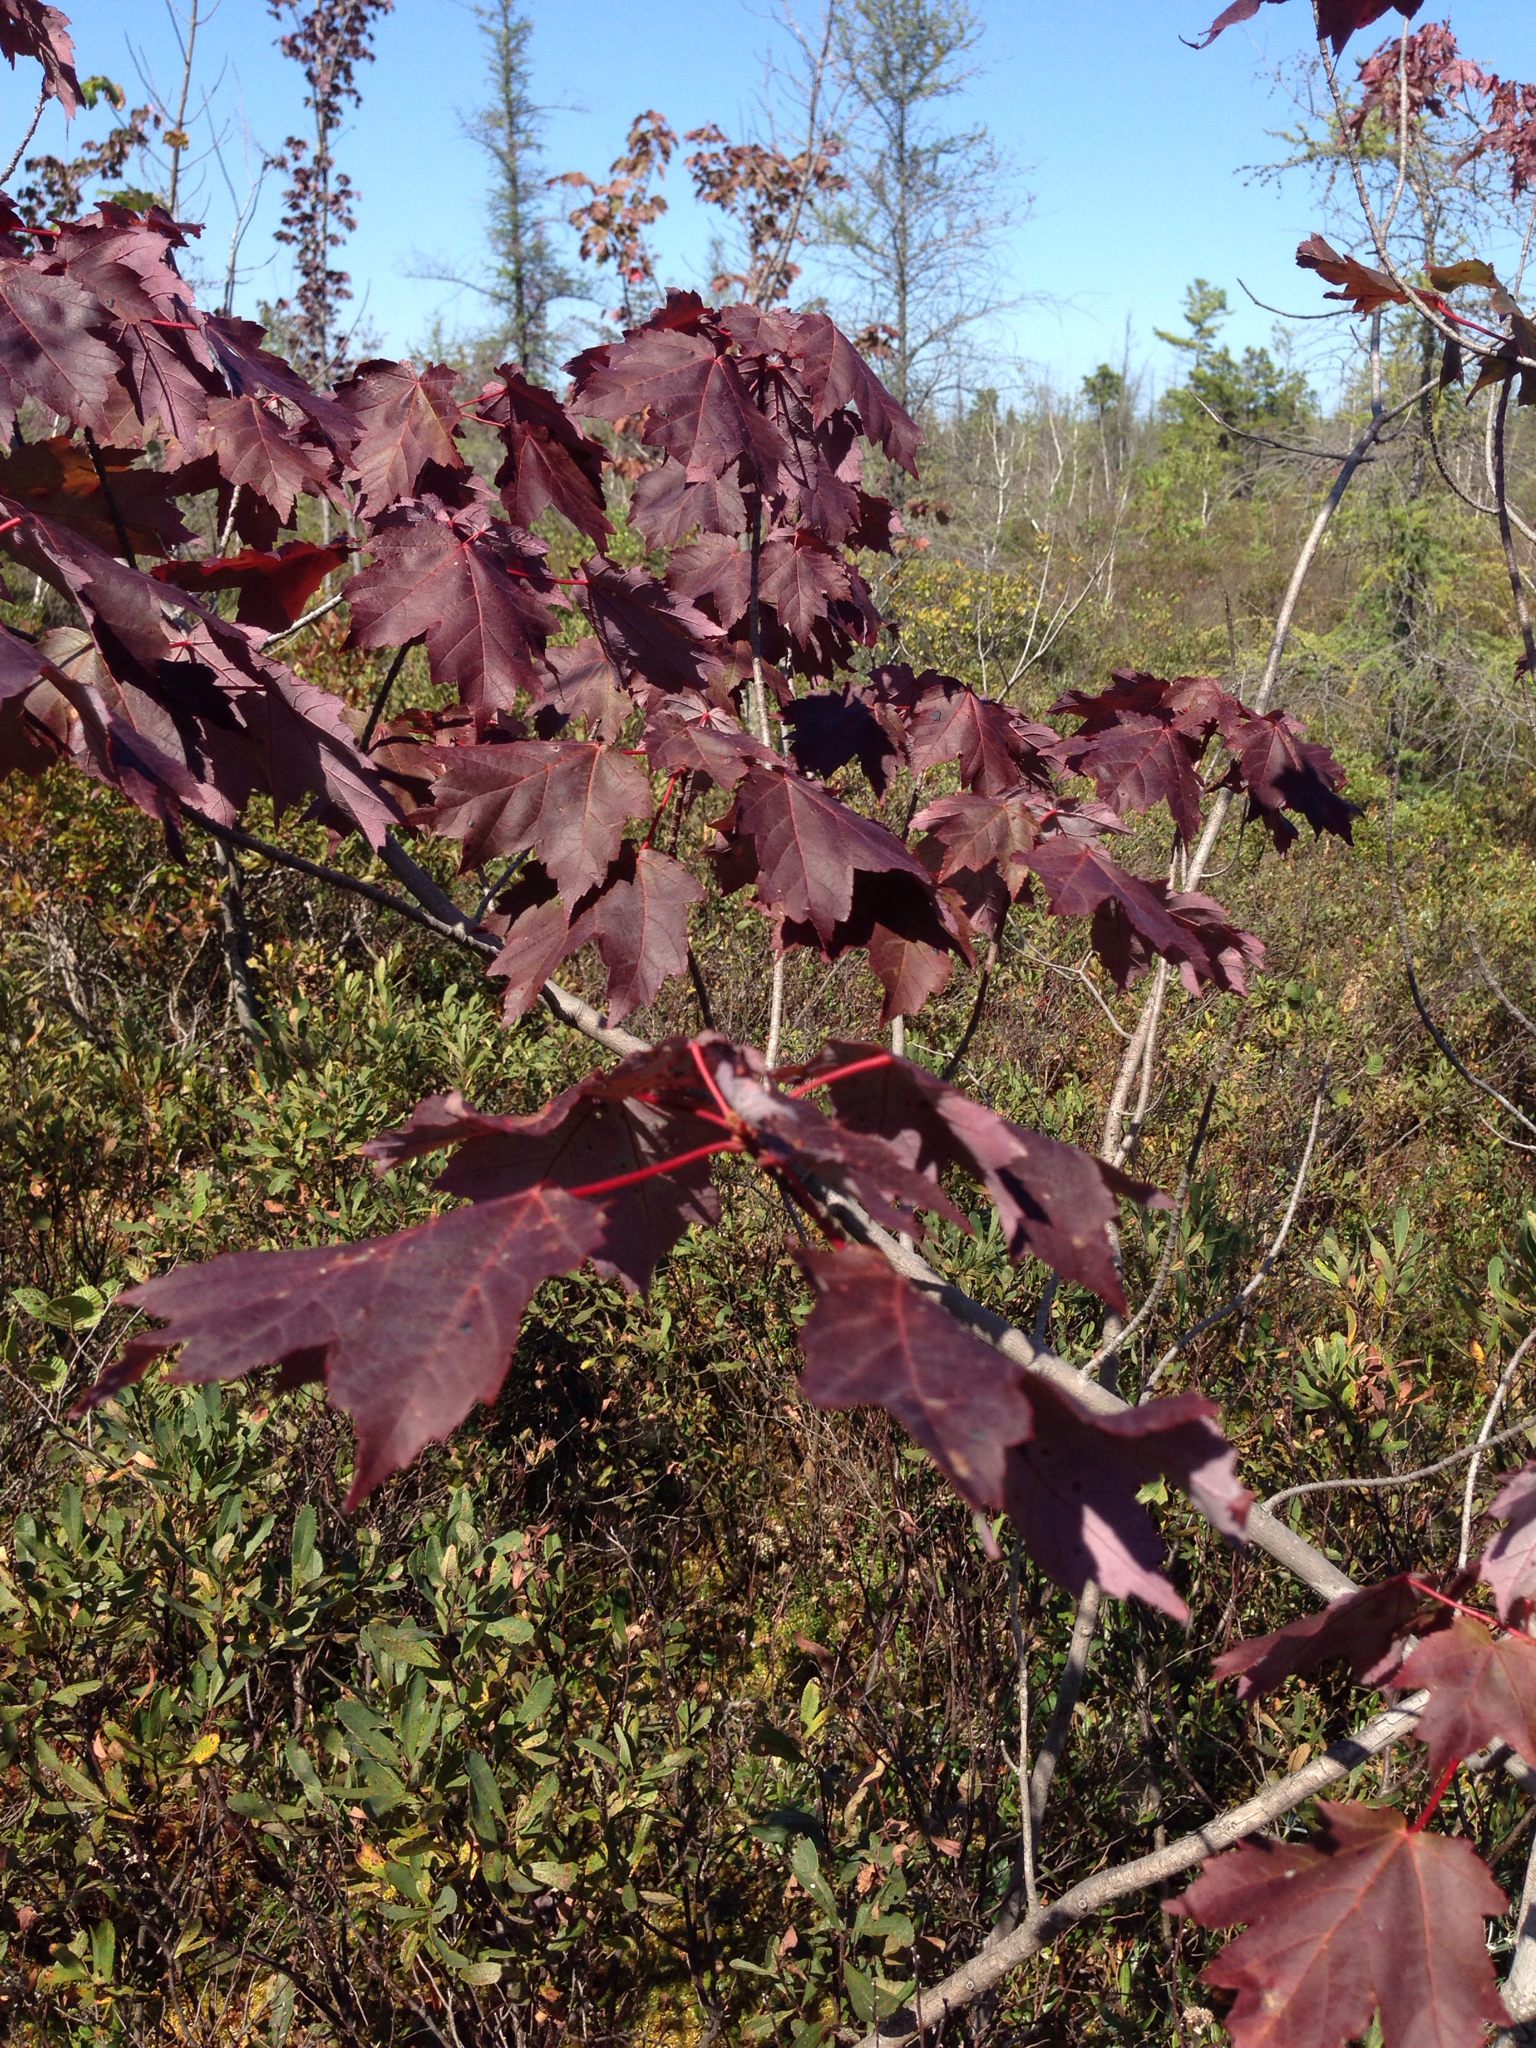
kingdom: Plantae
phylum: Tracheophyta
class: Magnoliopsida
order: Sapindales
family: Sapindaceae
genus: Acer
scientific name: Acer rubrum
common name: Red maple
